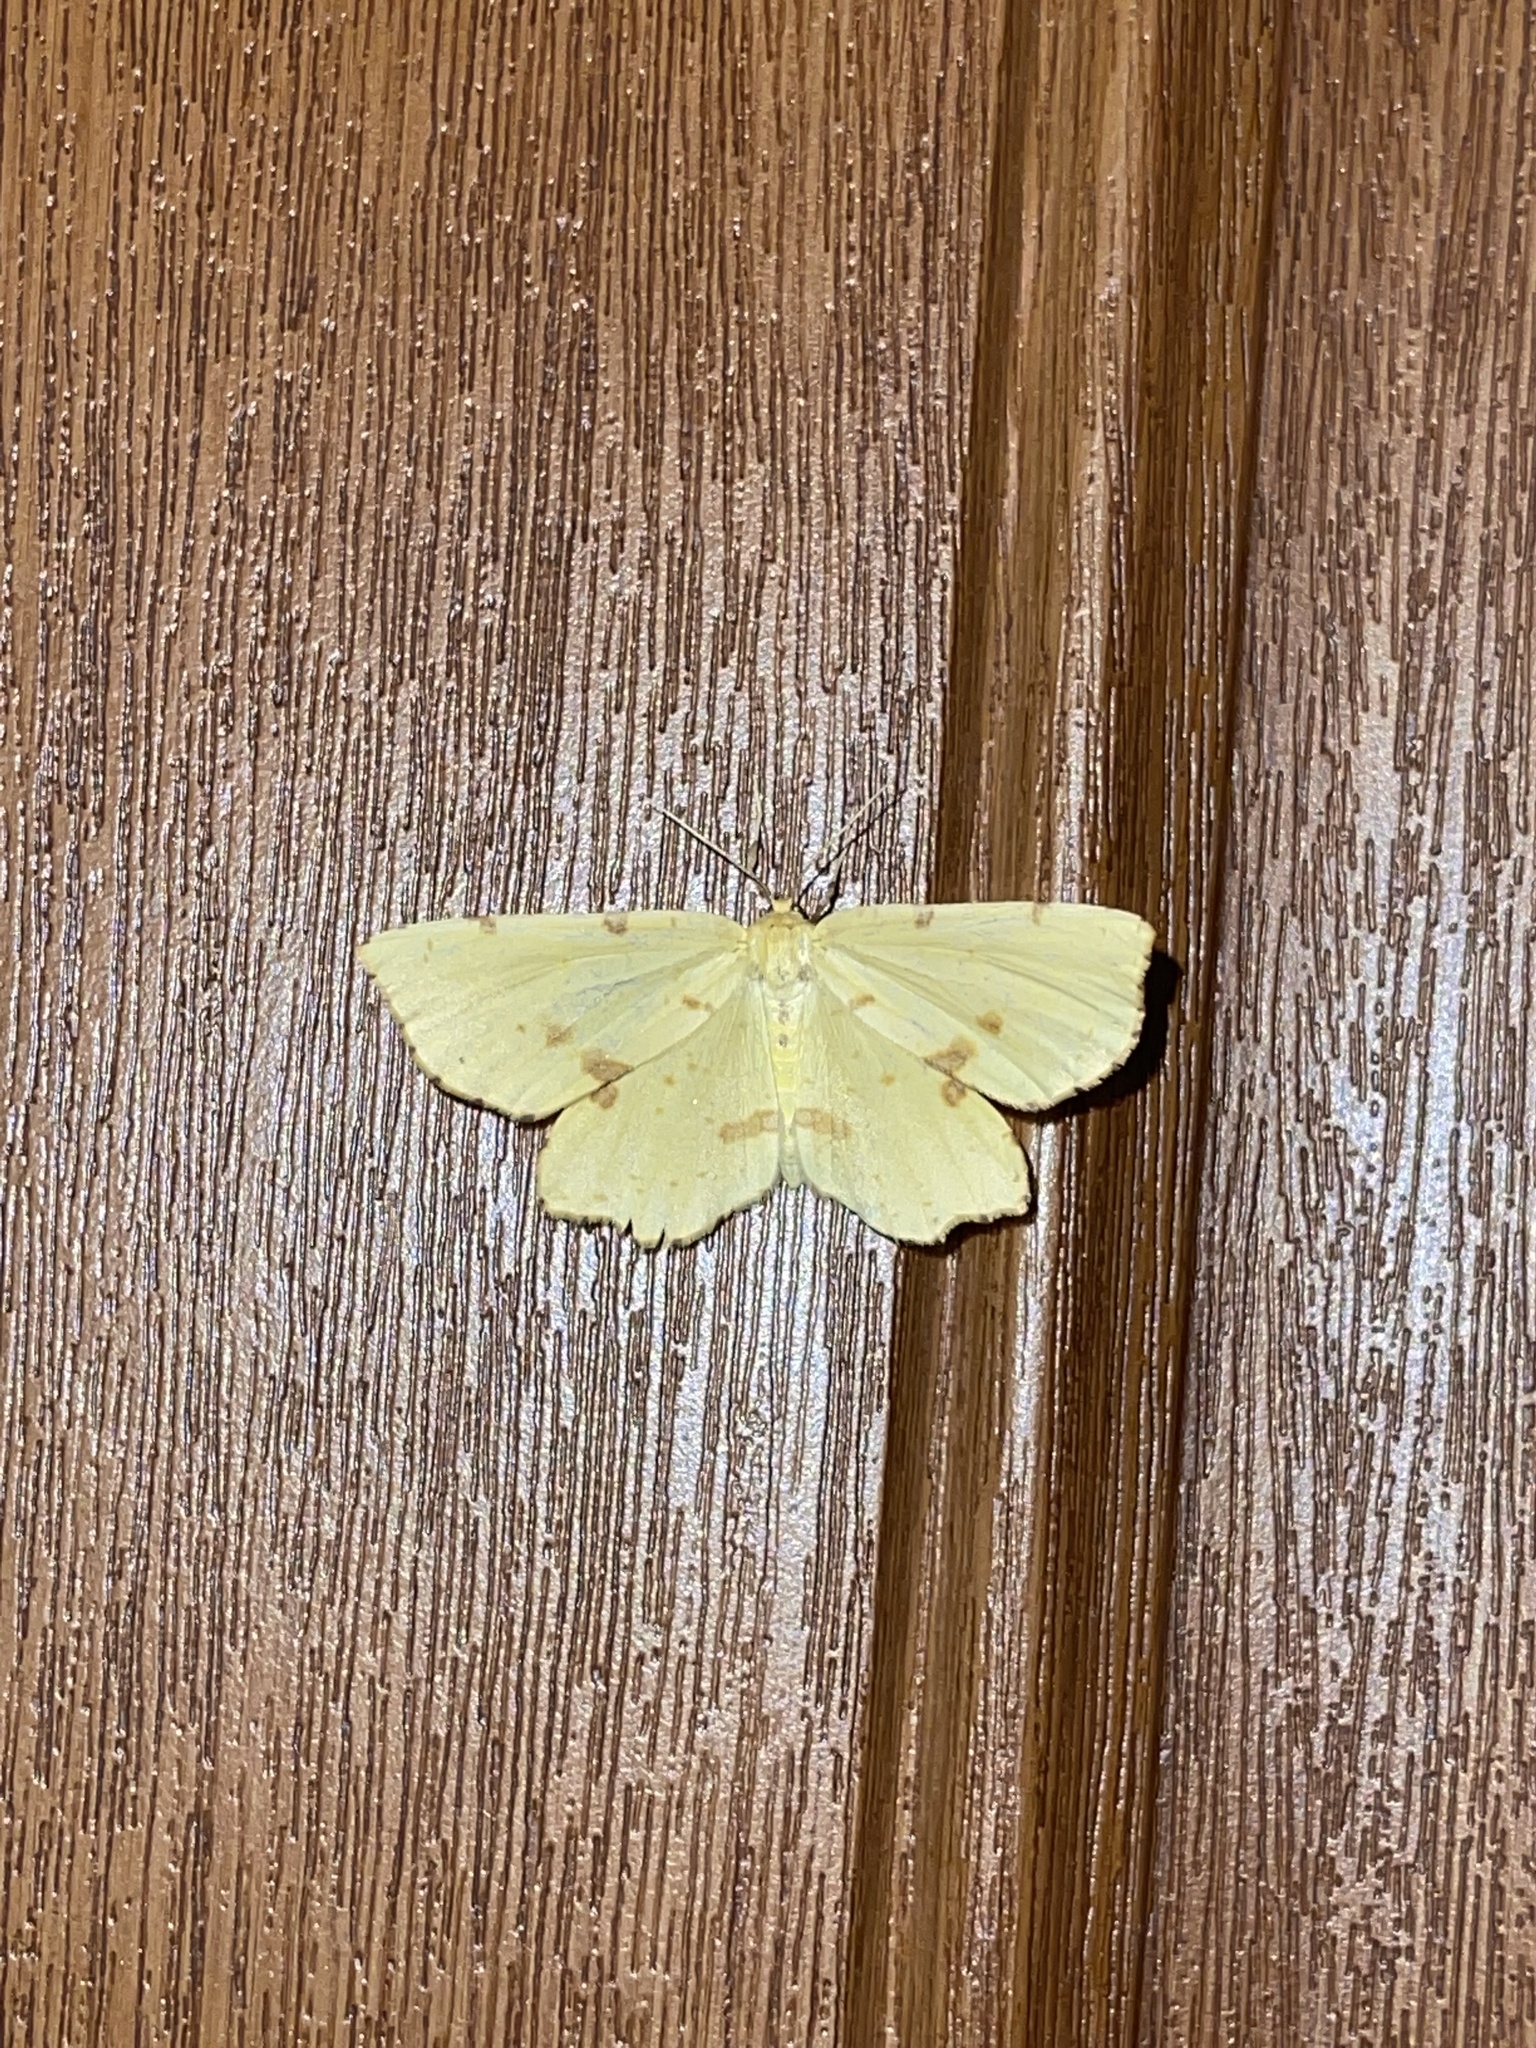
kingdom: Animalia
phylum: Arthropoda
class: Insecta
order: Lepidoptera
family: Geometridae
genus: Xanthotype
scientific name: Xanthotype
